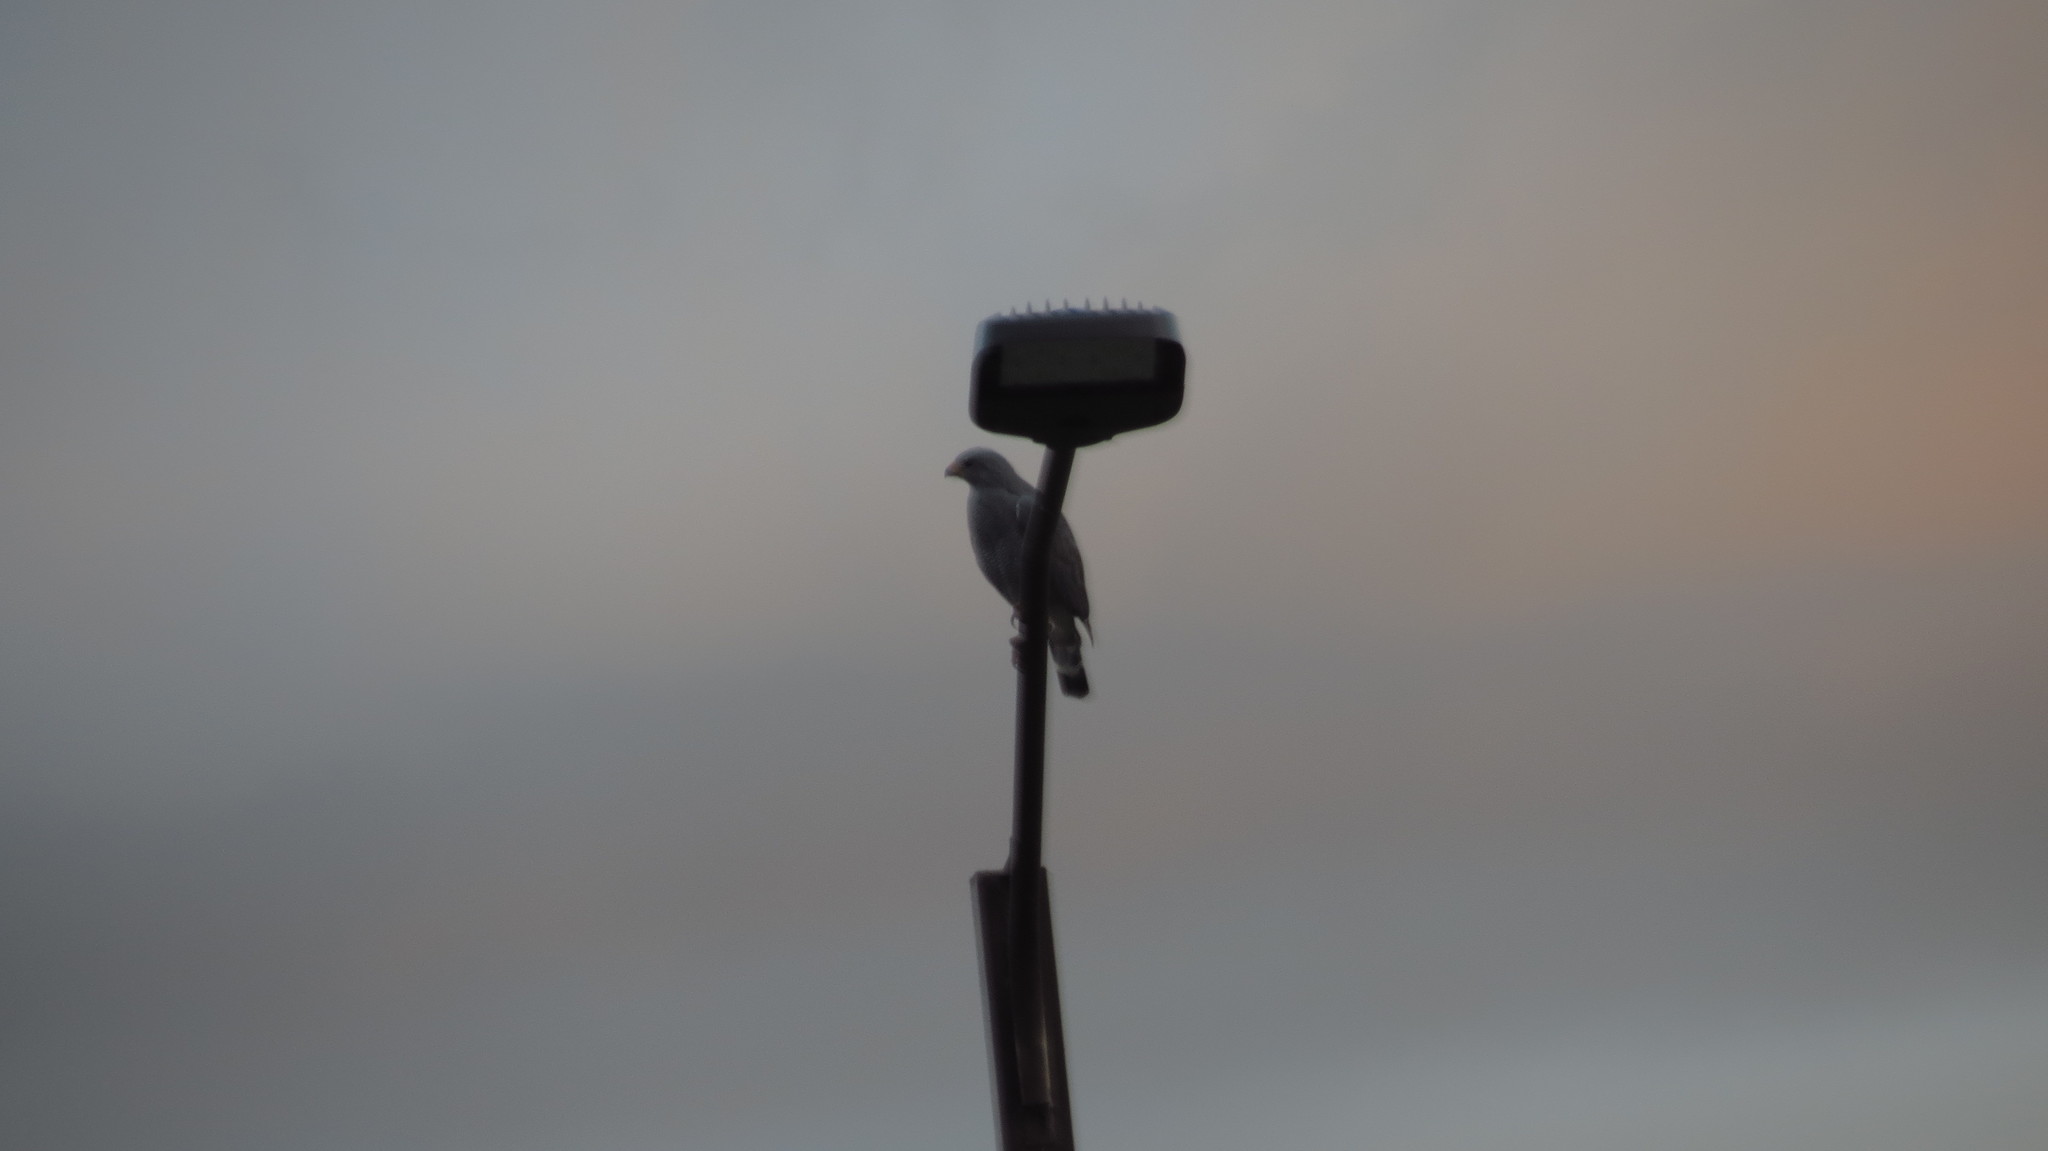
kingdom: Animalia
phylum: Chordata
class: Aves
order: Accipitriformes
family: Accipitridae
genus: Buteo
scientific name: Buteo nitidus
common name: Grey-lined hawk
